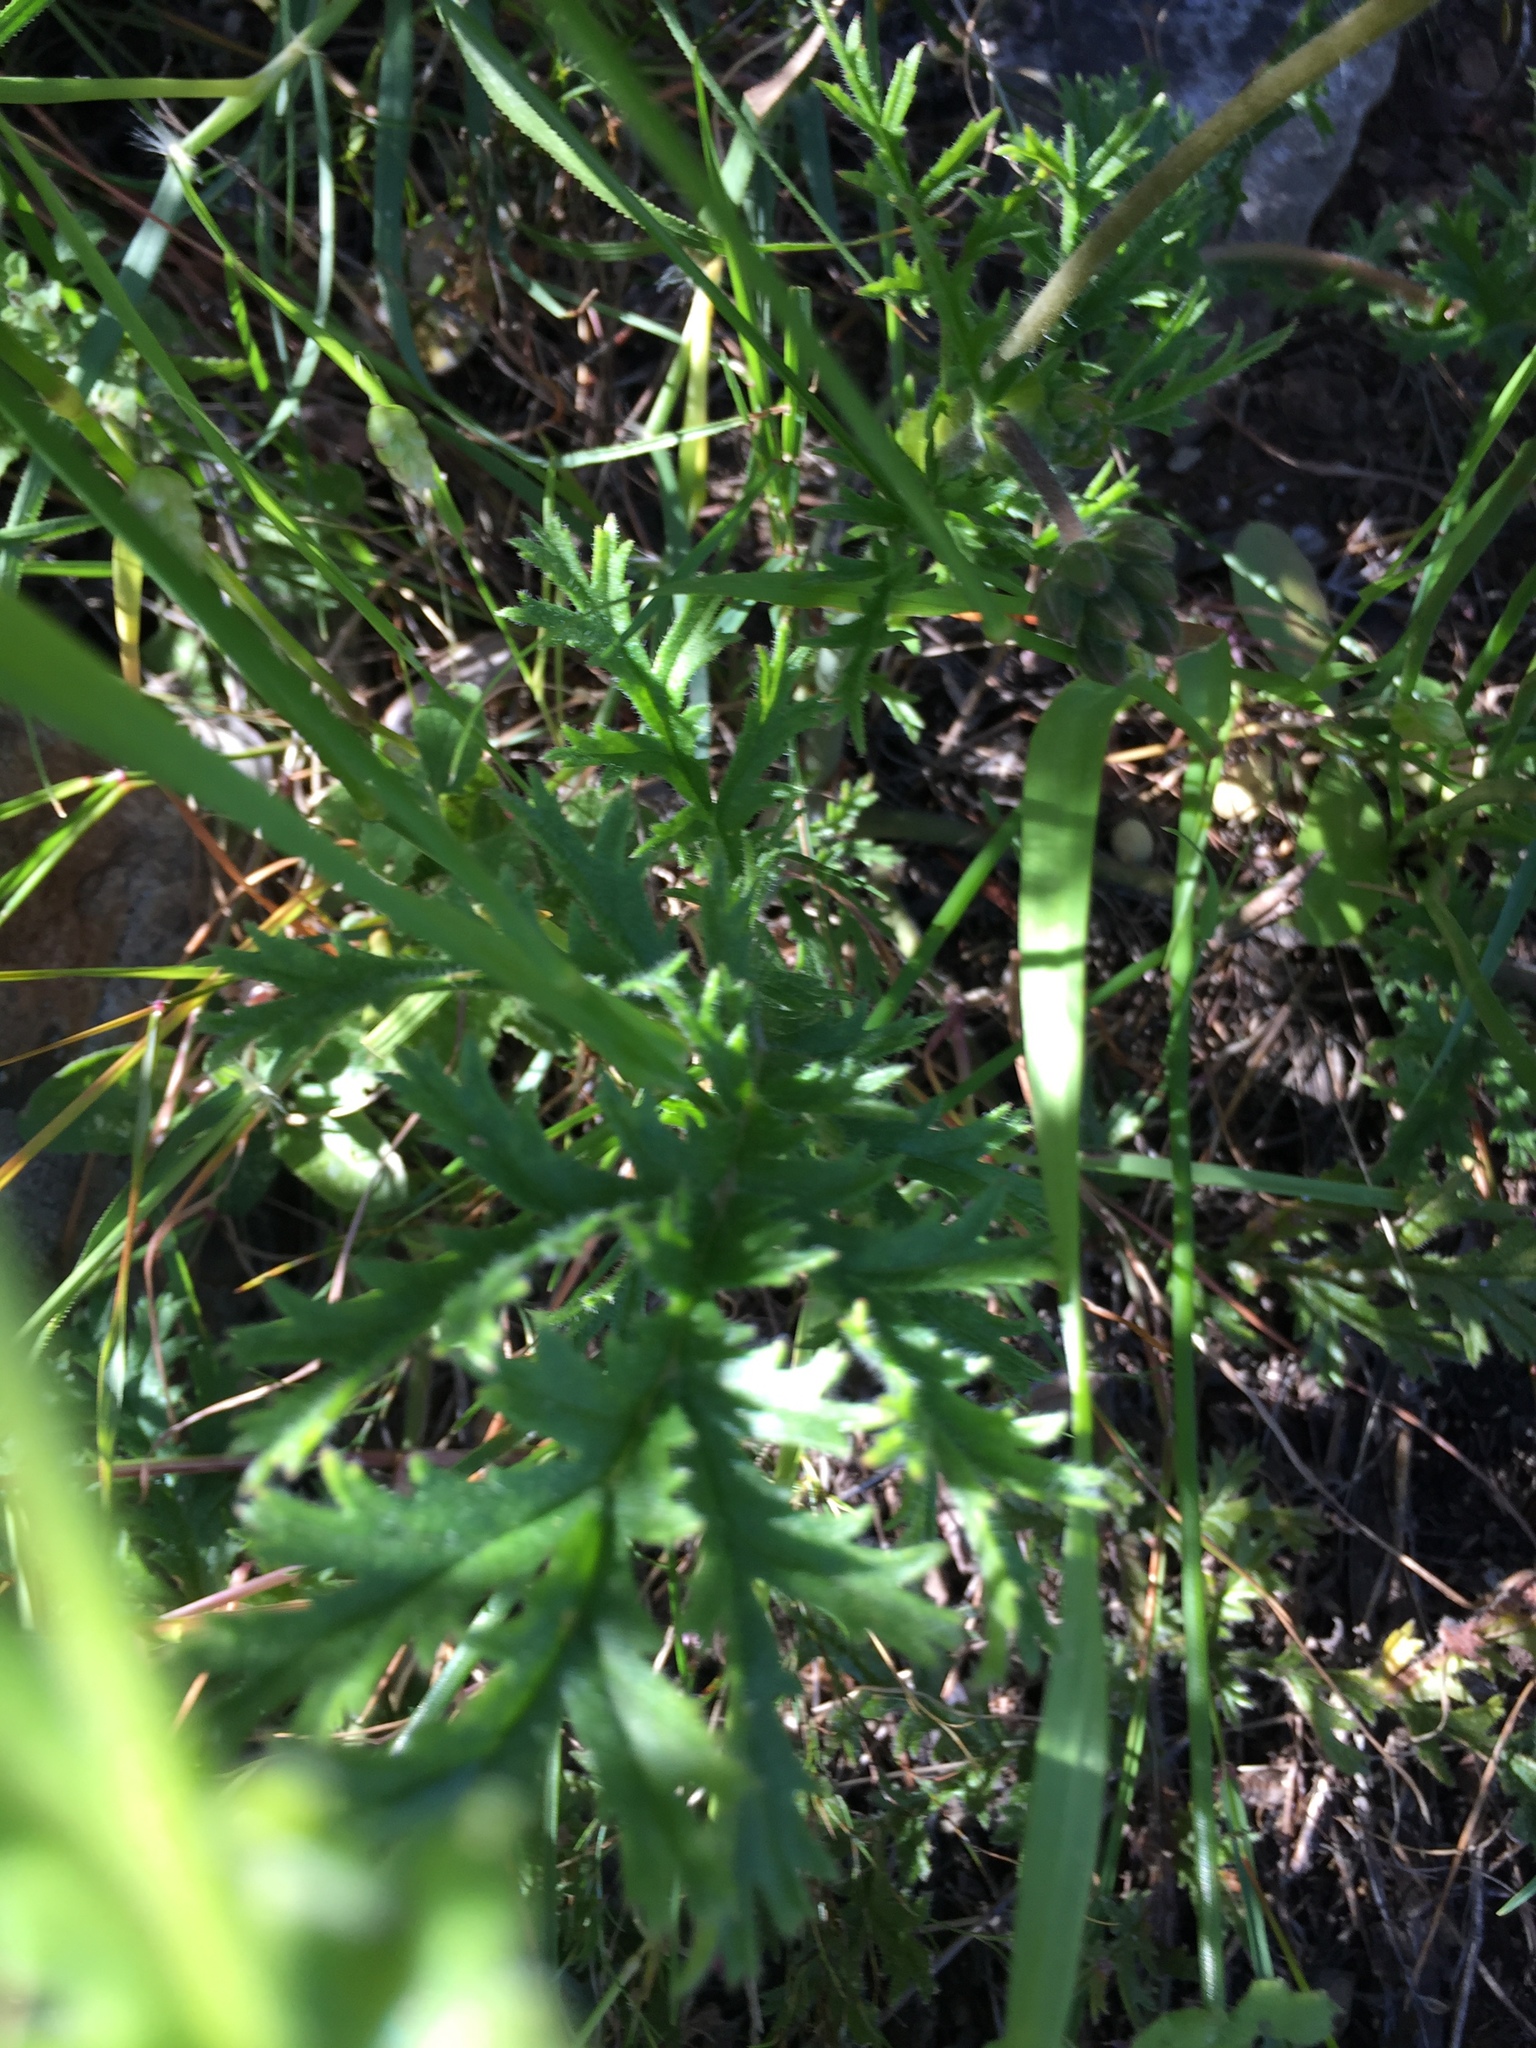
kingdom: Plantae
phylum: Tracheophyta
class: Magnoliopsida
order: Geraniales
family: Geraniaceae
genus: Pelargonium
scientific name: Pelargonium multiradiatum
